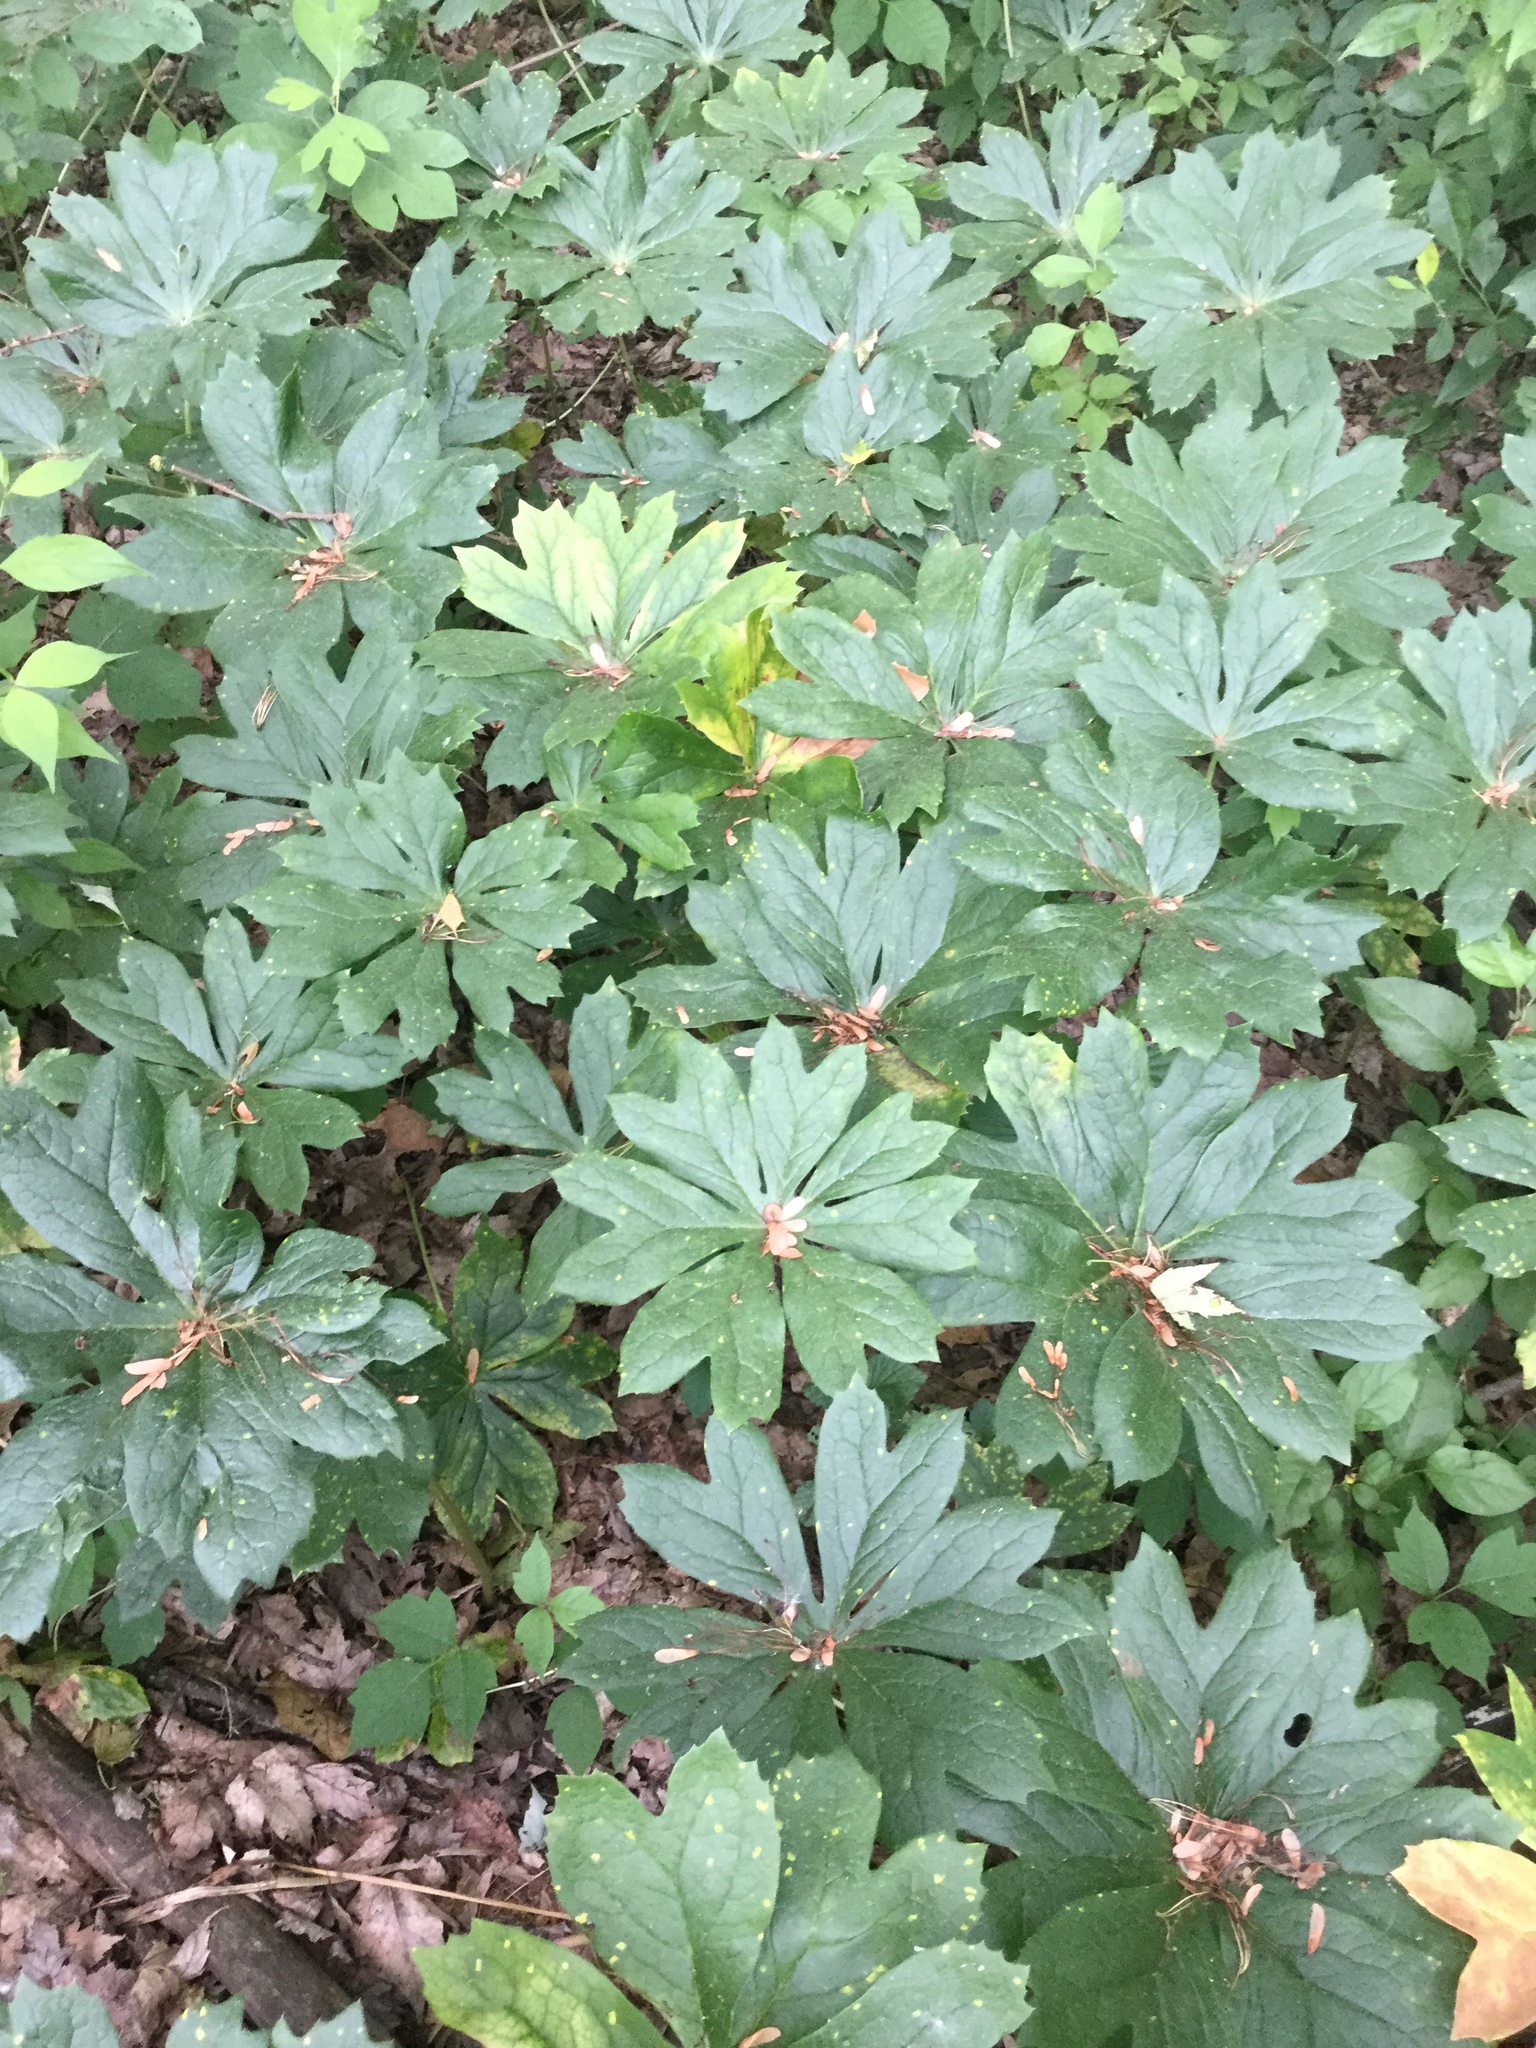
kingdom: Plantae
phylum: Tracheophyta
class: Magnoliopsida
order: Ranunculales
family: Berberidaceae
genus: Podophyllum
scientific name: Podophyllum peltatum
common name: Wild mandrake
